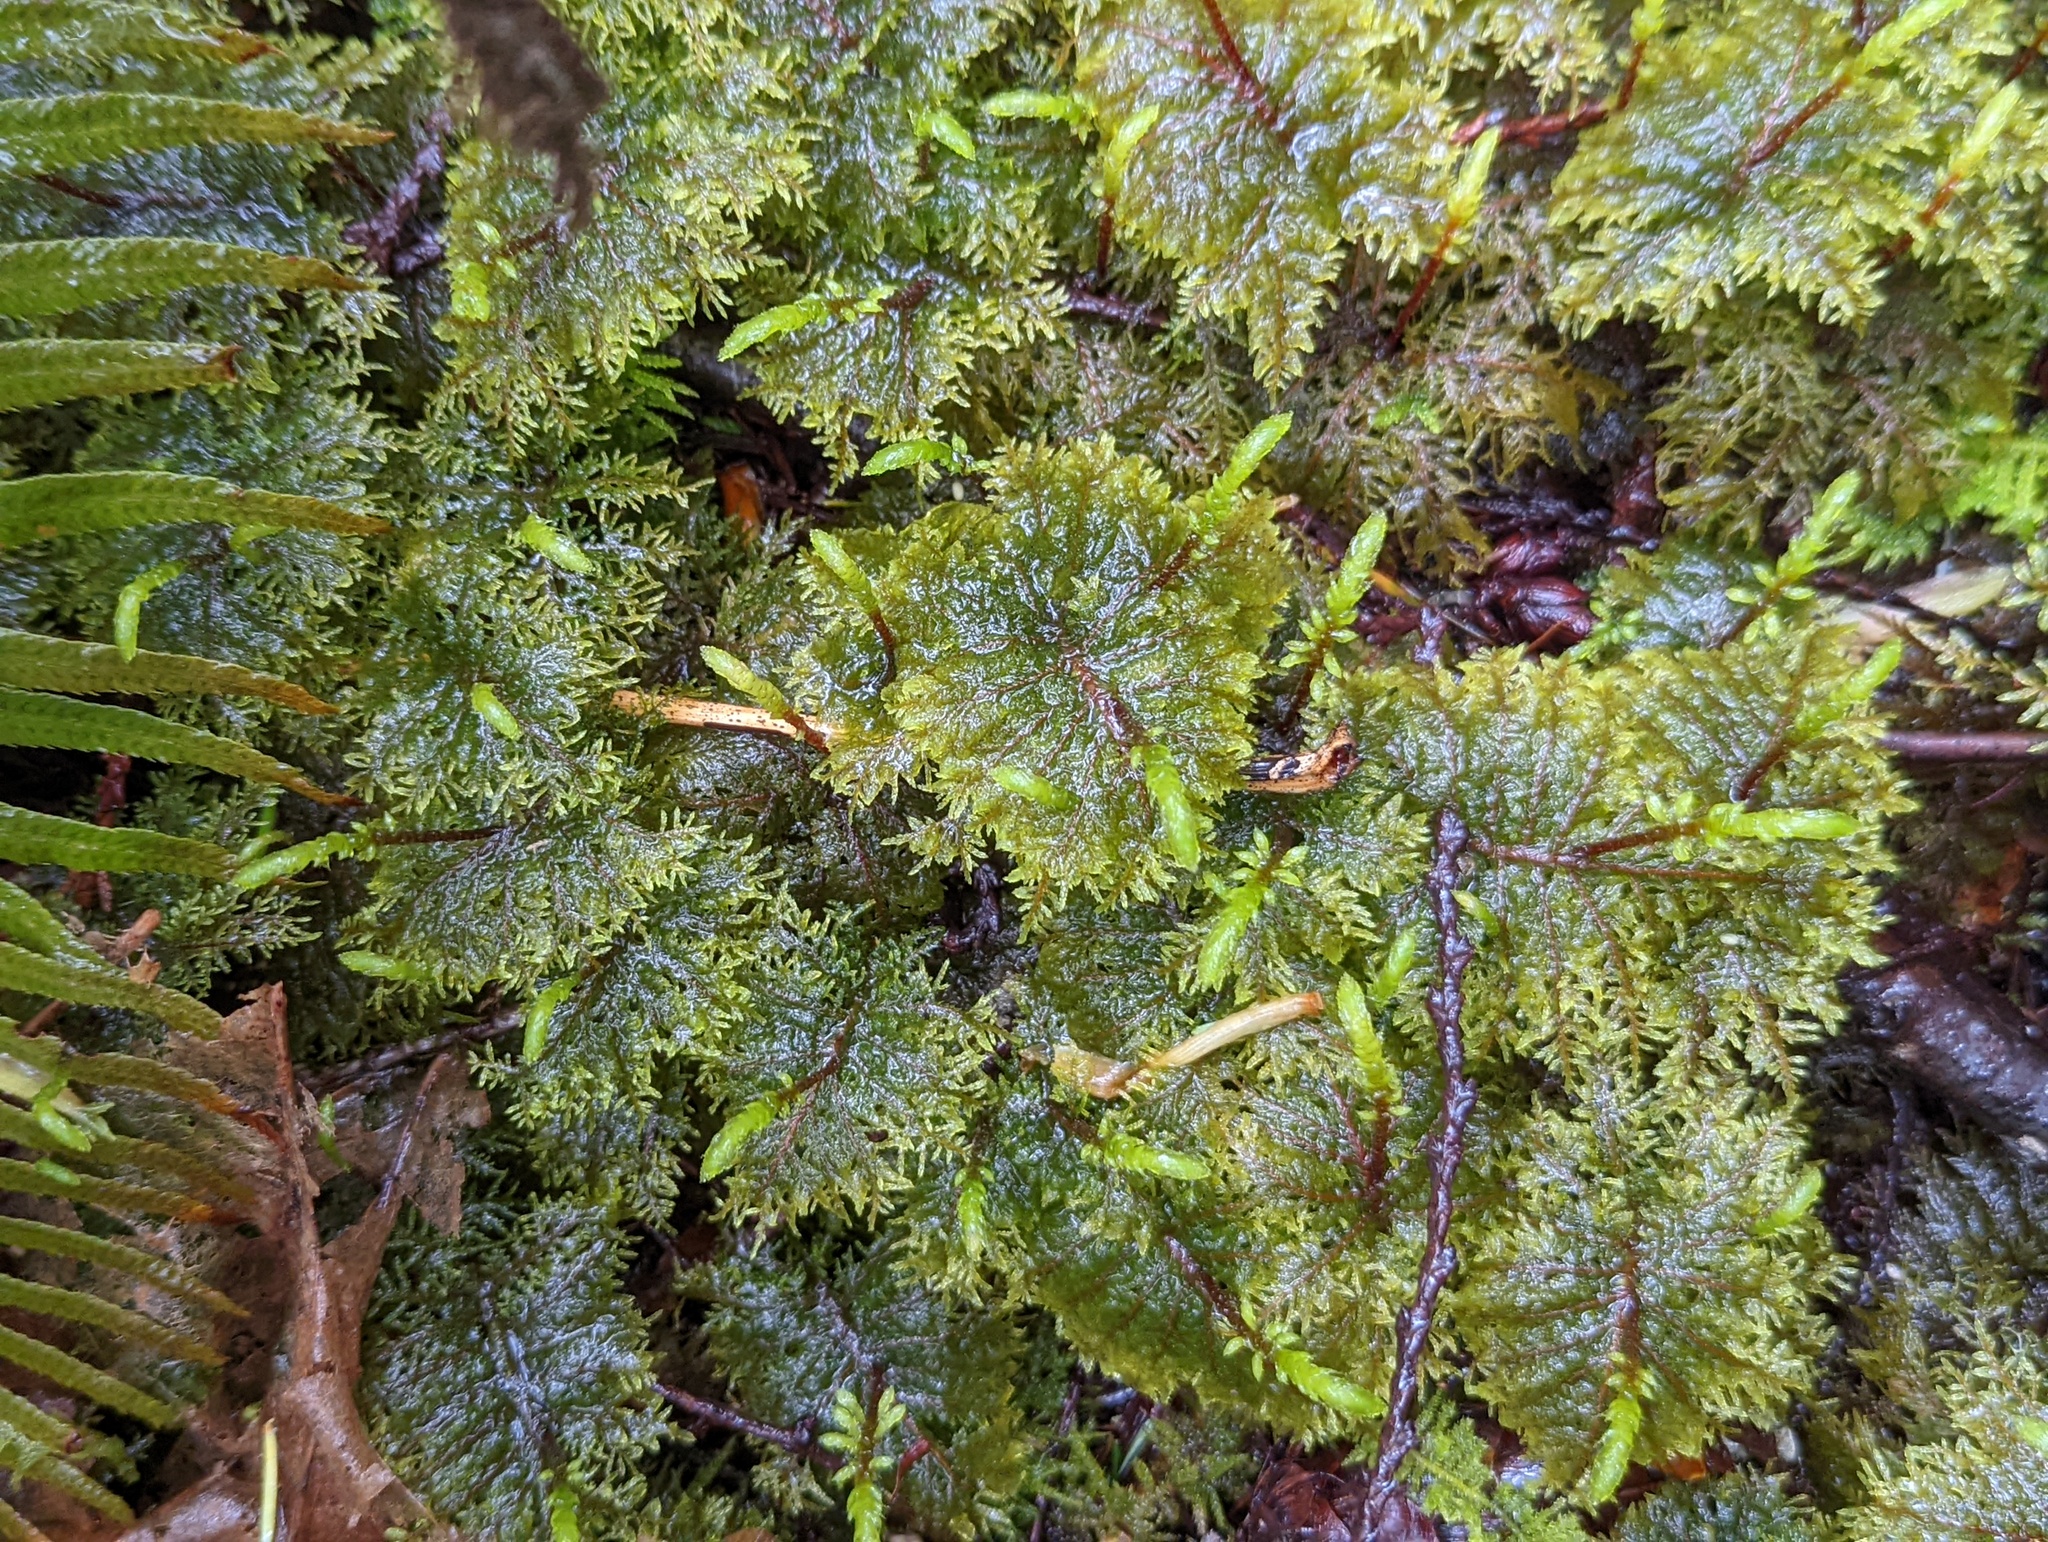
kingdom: Plantae
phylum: Bryophyta
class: Bryopsida
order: Hypnales
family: Hylocomiaceae
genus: Hylocomium
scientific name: Hylocomium splendens
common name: Stairstep moss
